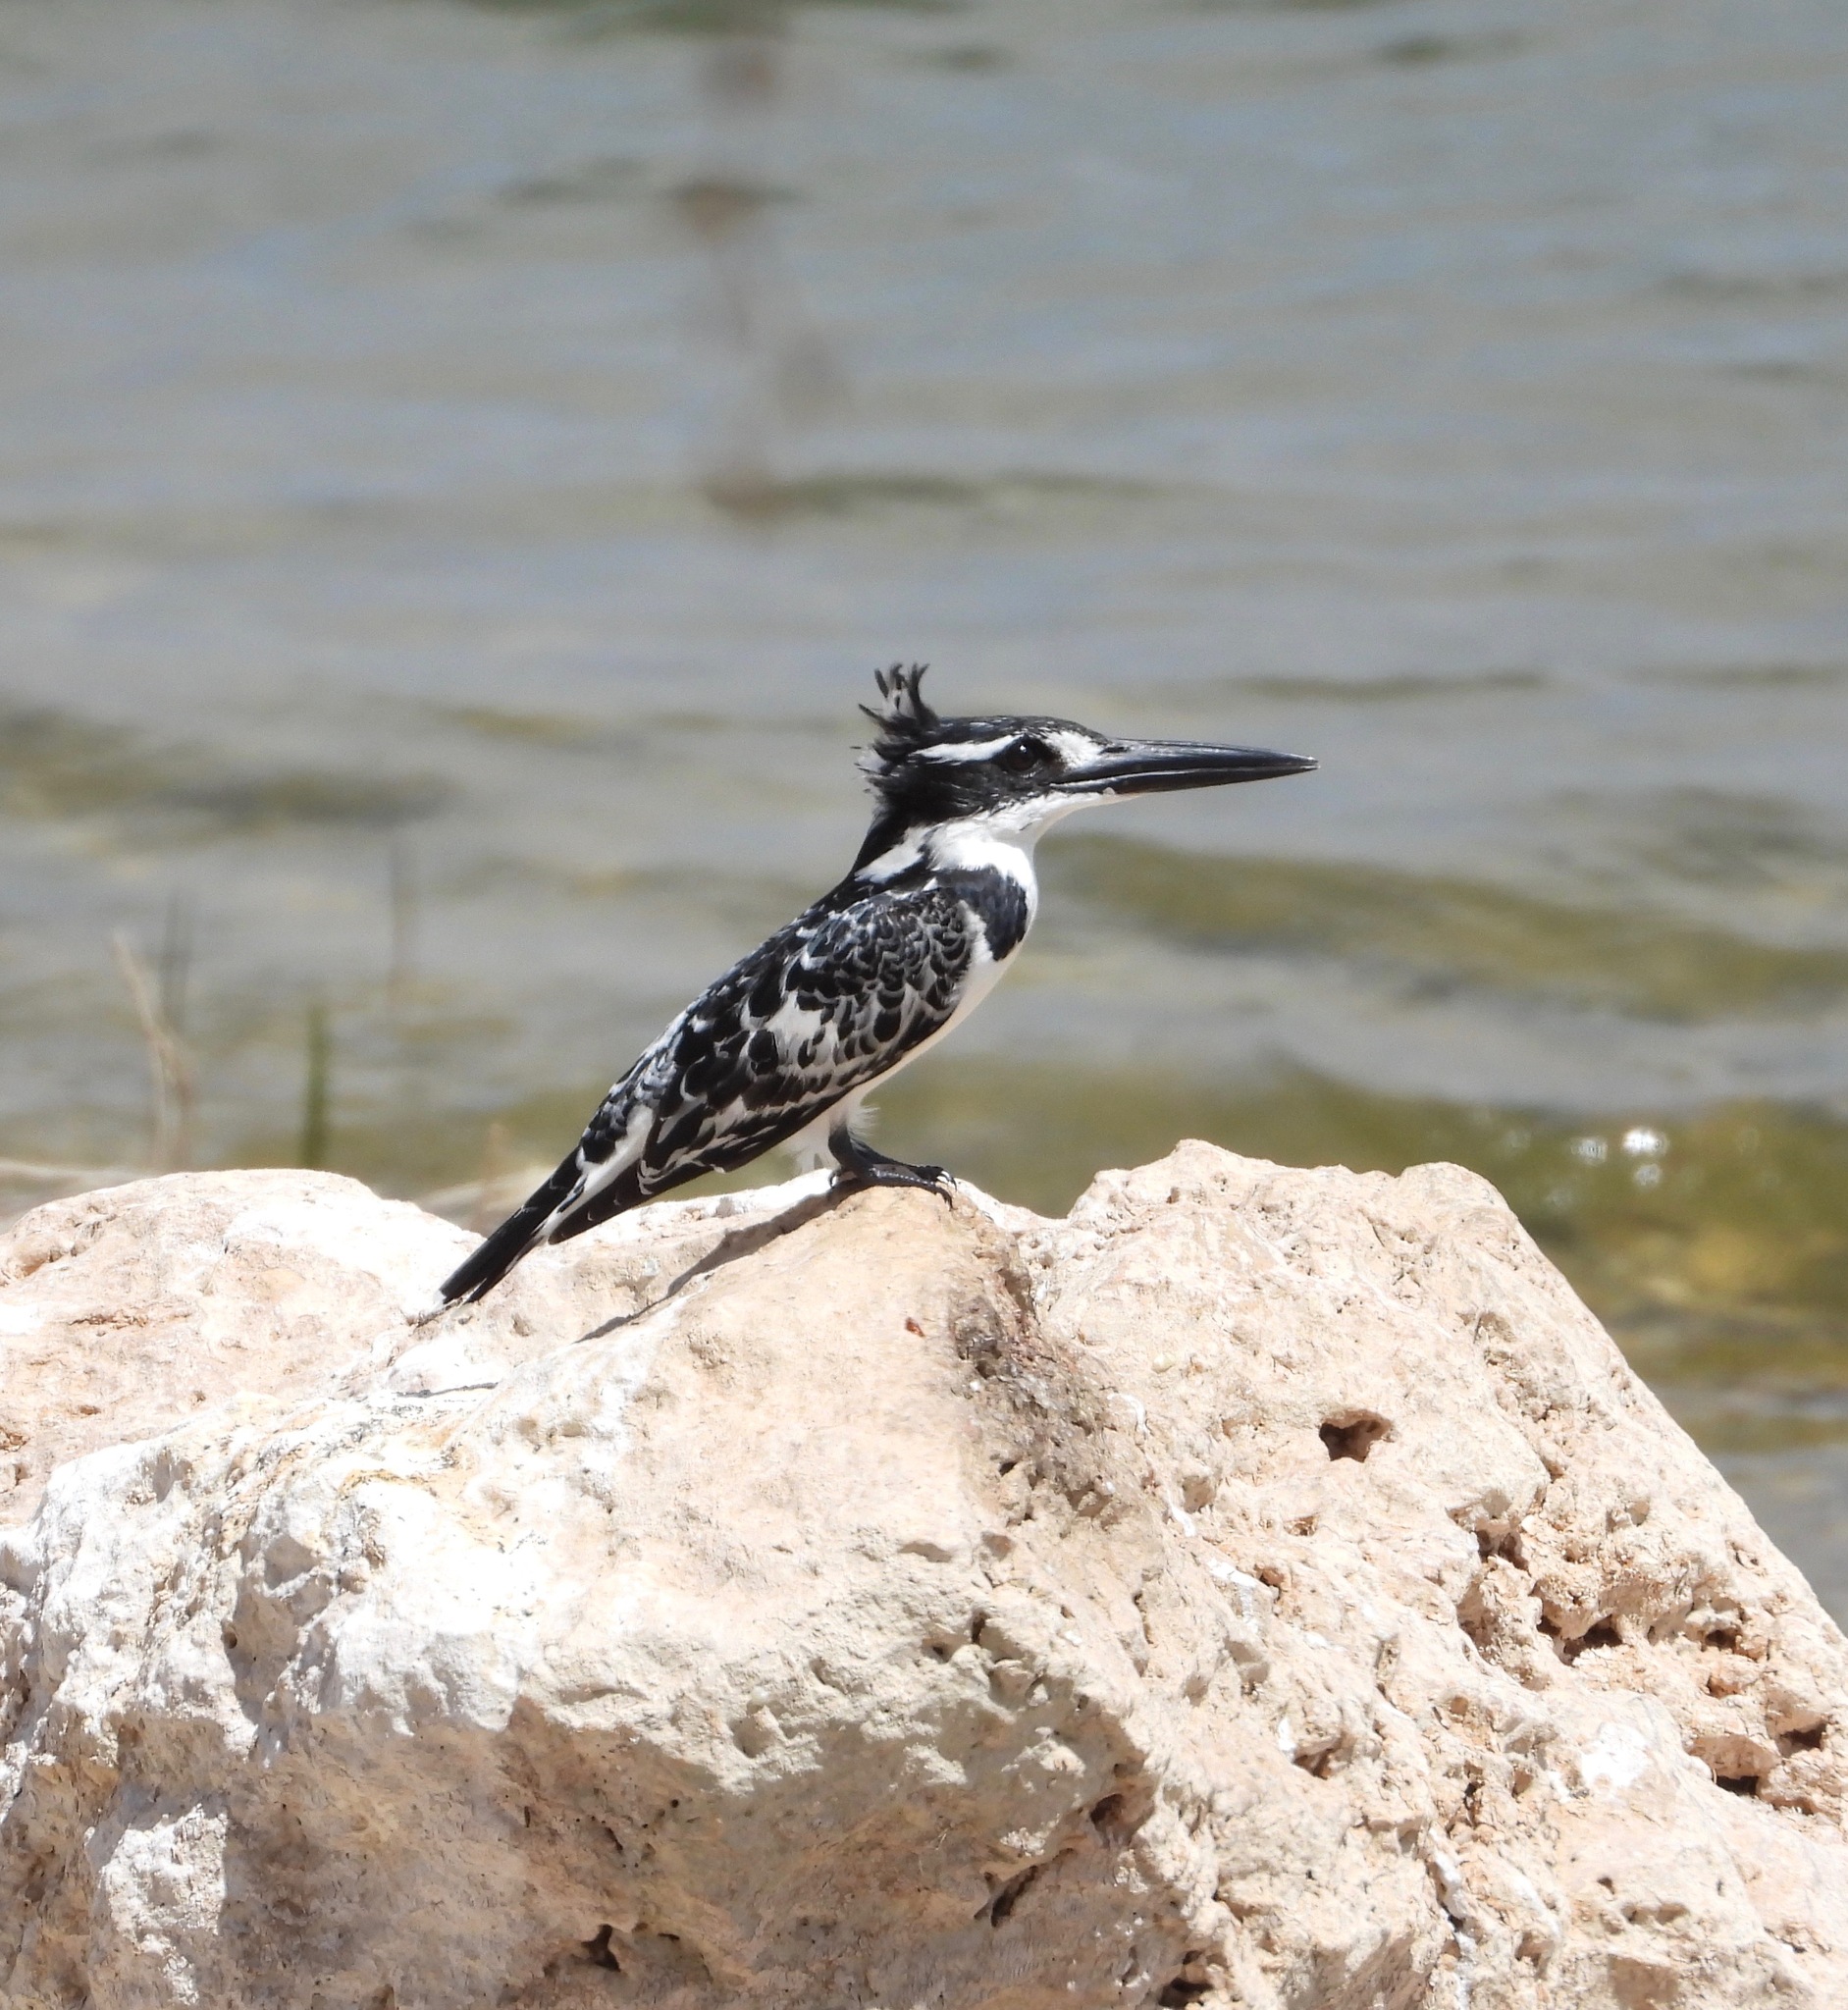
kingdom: Animalia
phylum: Chordata
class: Aves
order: Coraciiformes
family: Alcedinidae
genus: Ceryle
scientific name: Ceryle rudis
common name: Pied kingfisher
